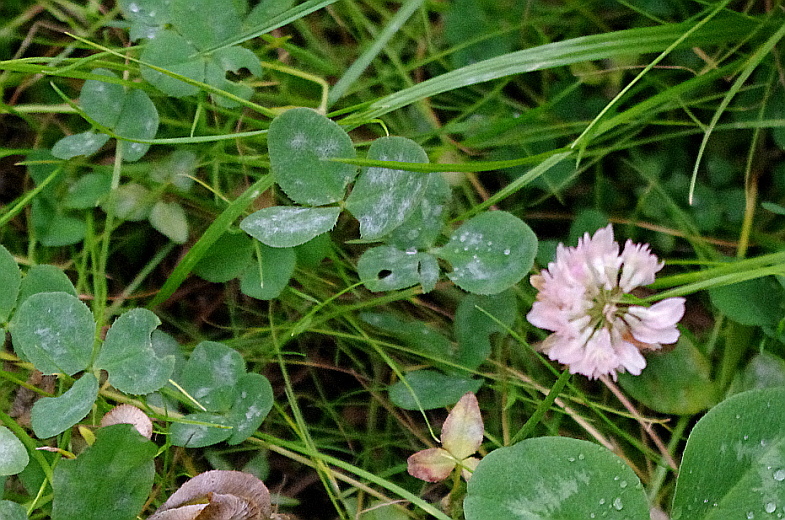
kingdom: Plantae
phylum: Tracheophyta
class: Magnoliopsida
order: Fabales
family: Fabaceae
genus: Trifolium
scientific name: Trifolium hybridum
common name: Alsike clover
